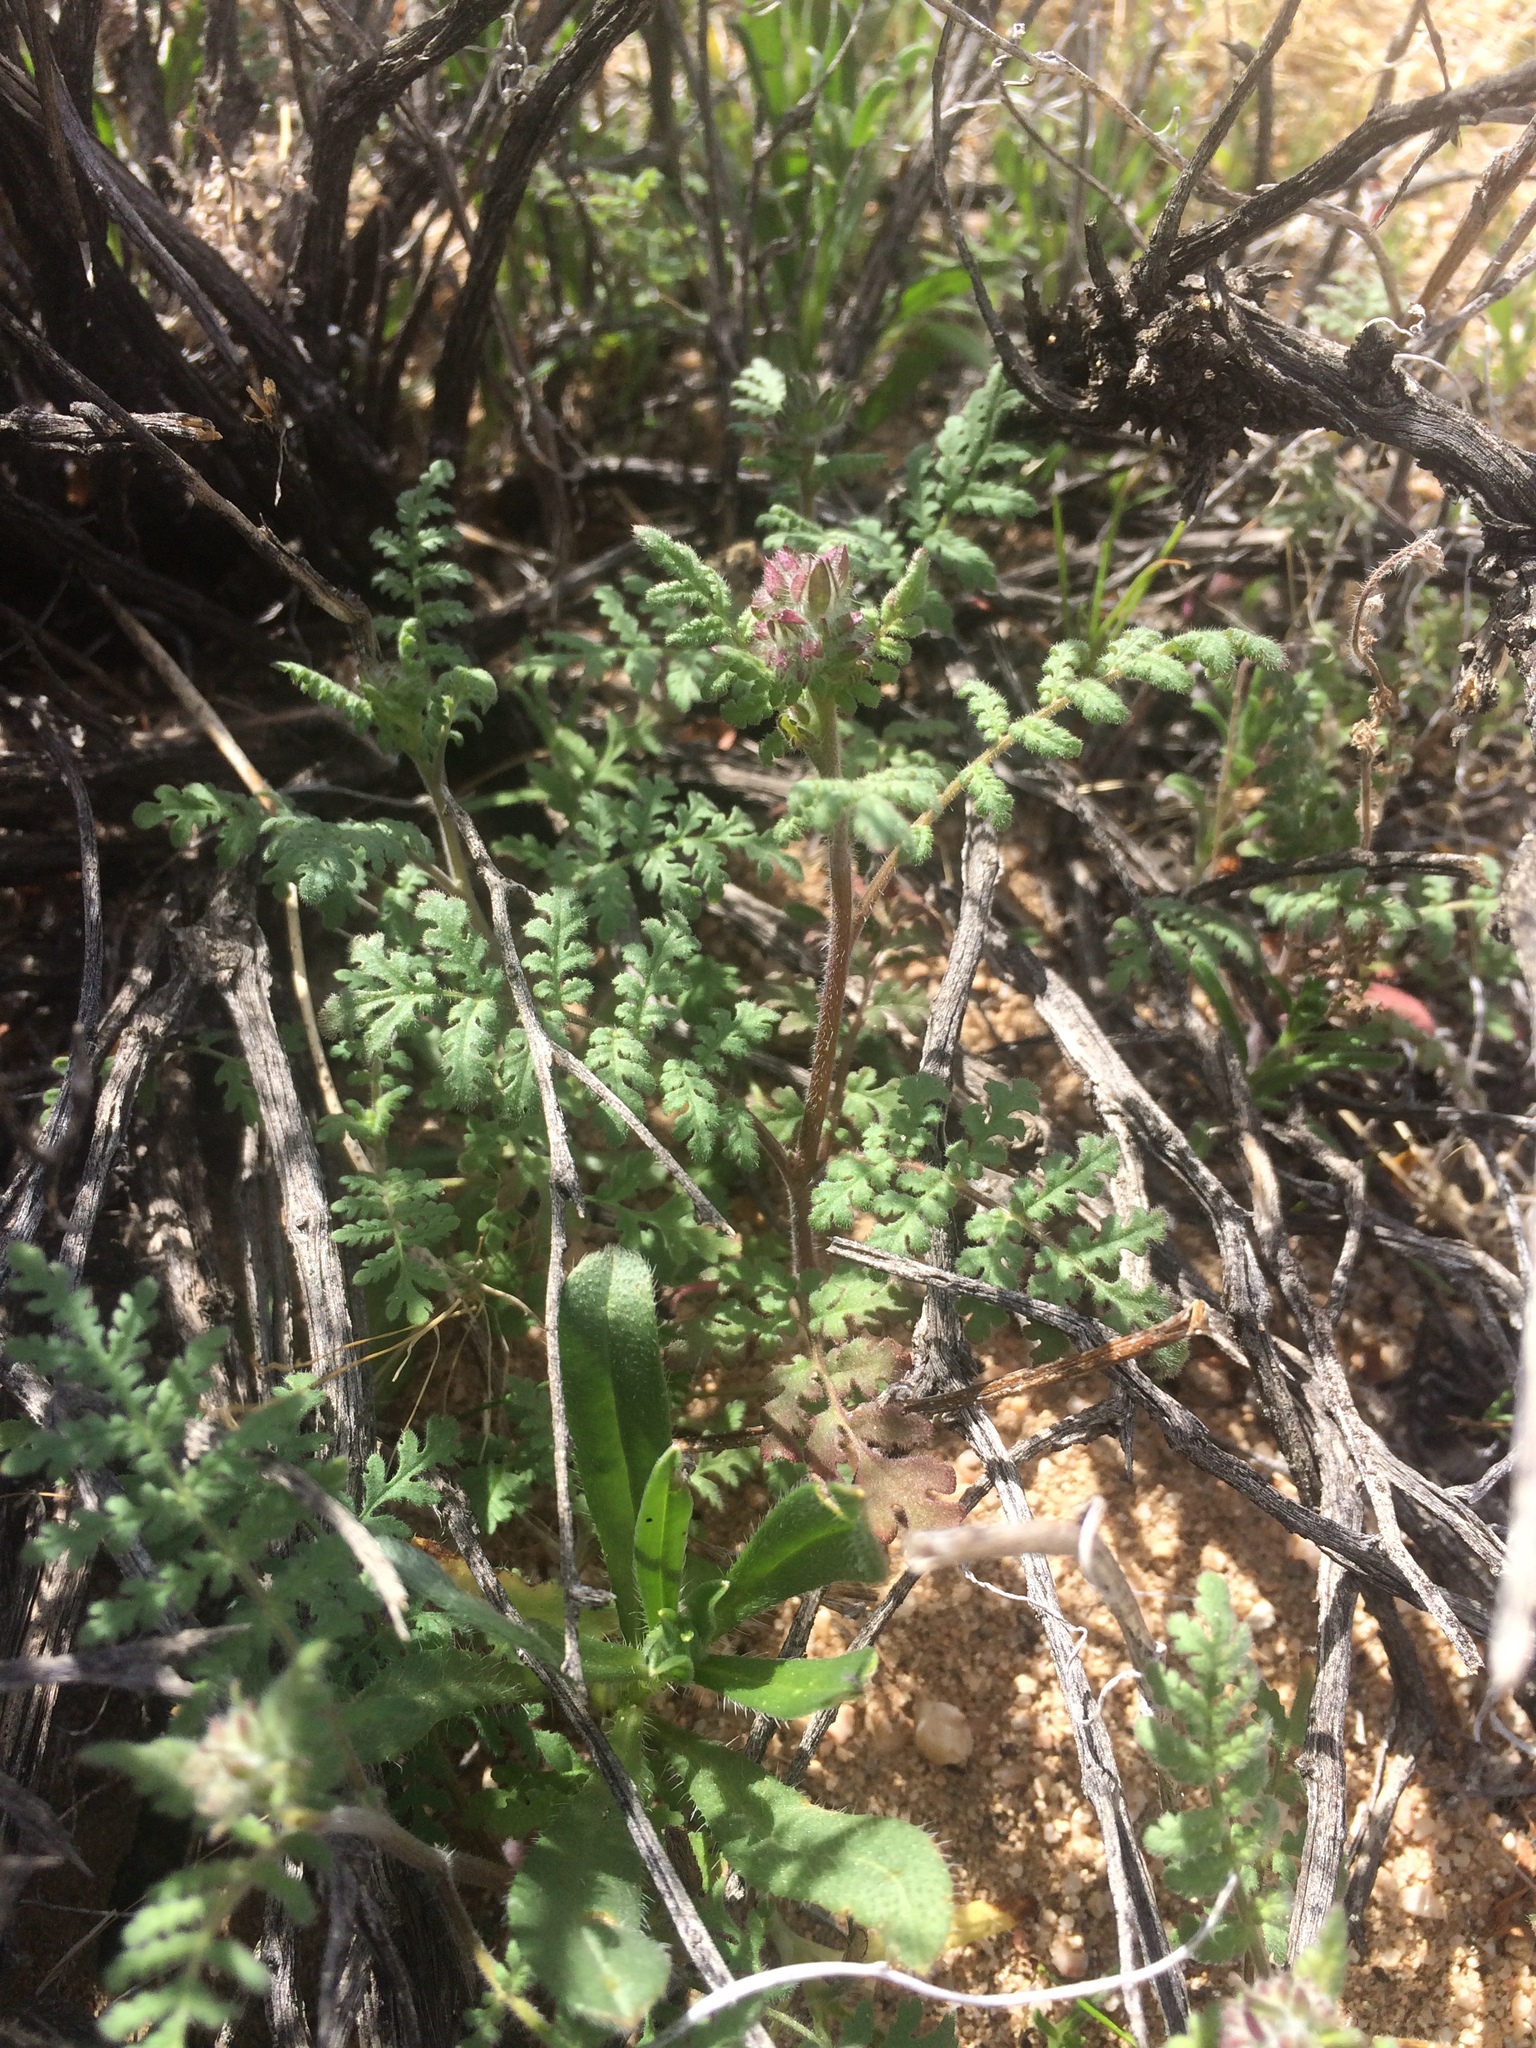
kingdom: Plantae
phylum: Tracheophyta
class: Magnoliopsida
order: Boraginales
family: Hydrophyllaceae
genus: Phacelia
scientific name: Phacelia distans
